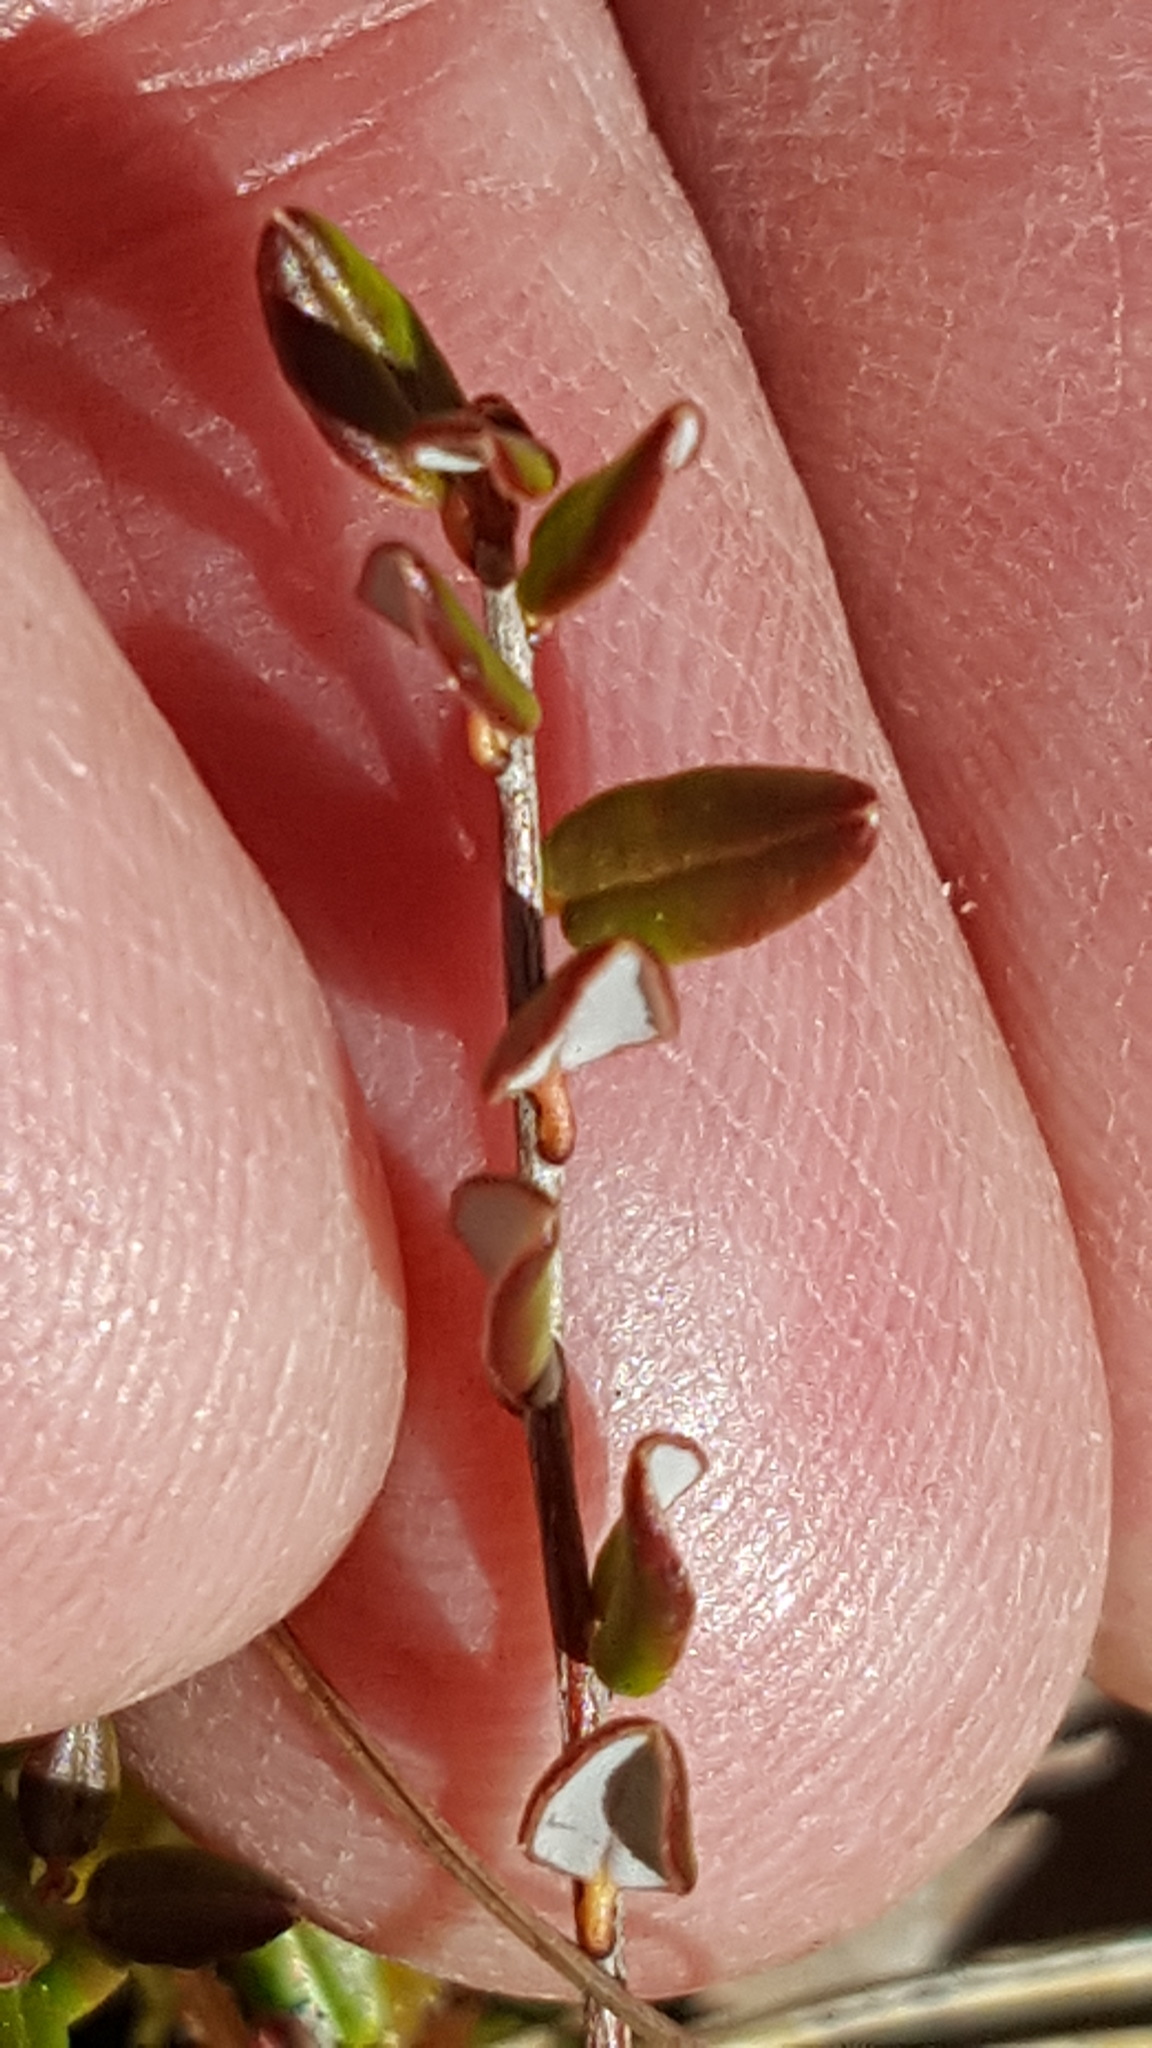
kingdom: Plantae
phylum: Tracheophyta
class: Magnoliopsida
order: Ericales
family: Ericaceae
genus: Vaccinium
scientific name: Vaccinium oxycoccos
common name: Cranberry
